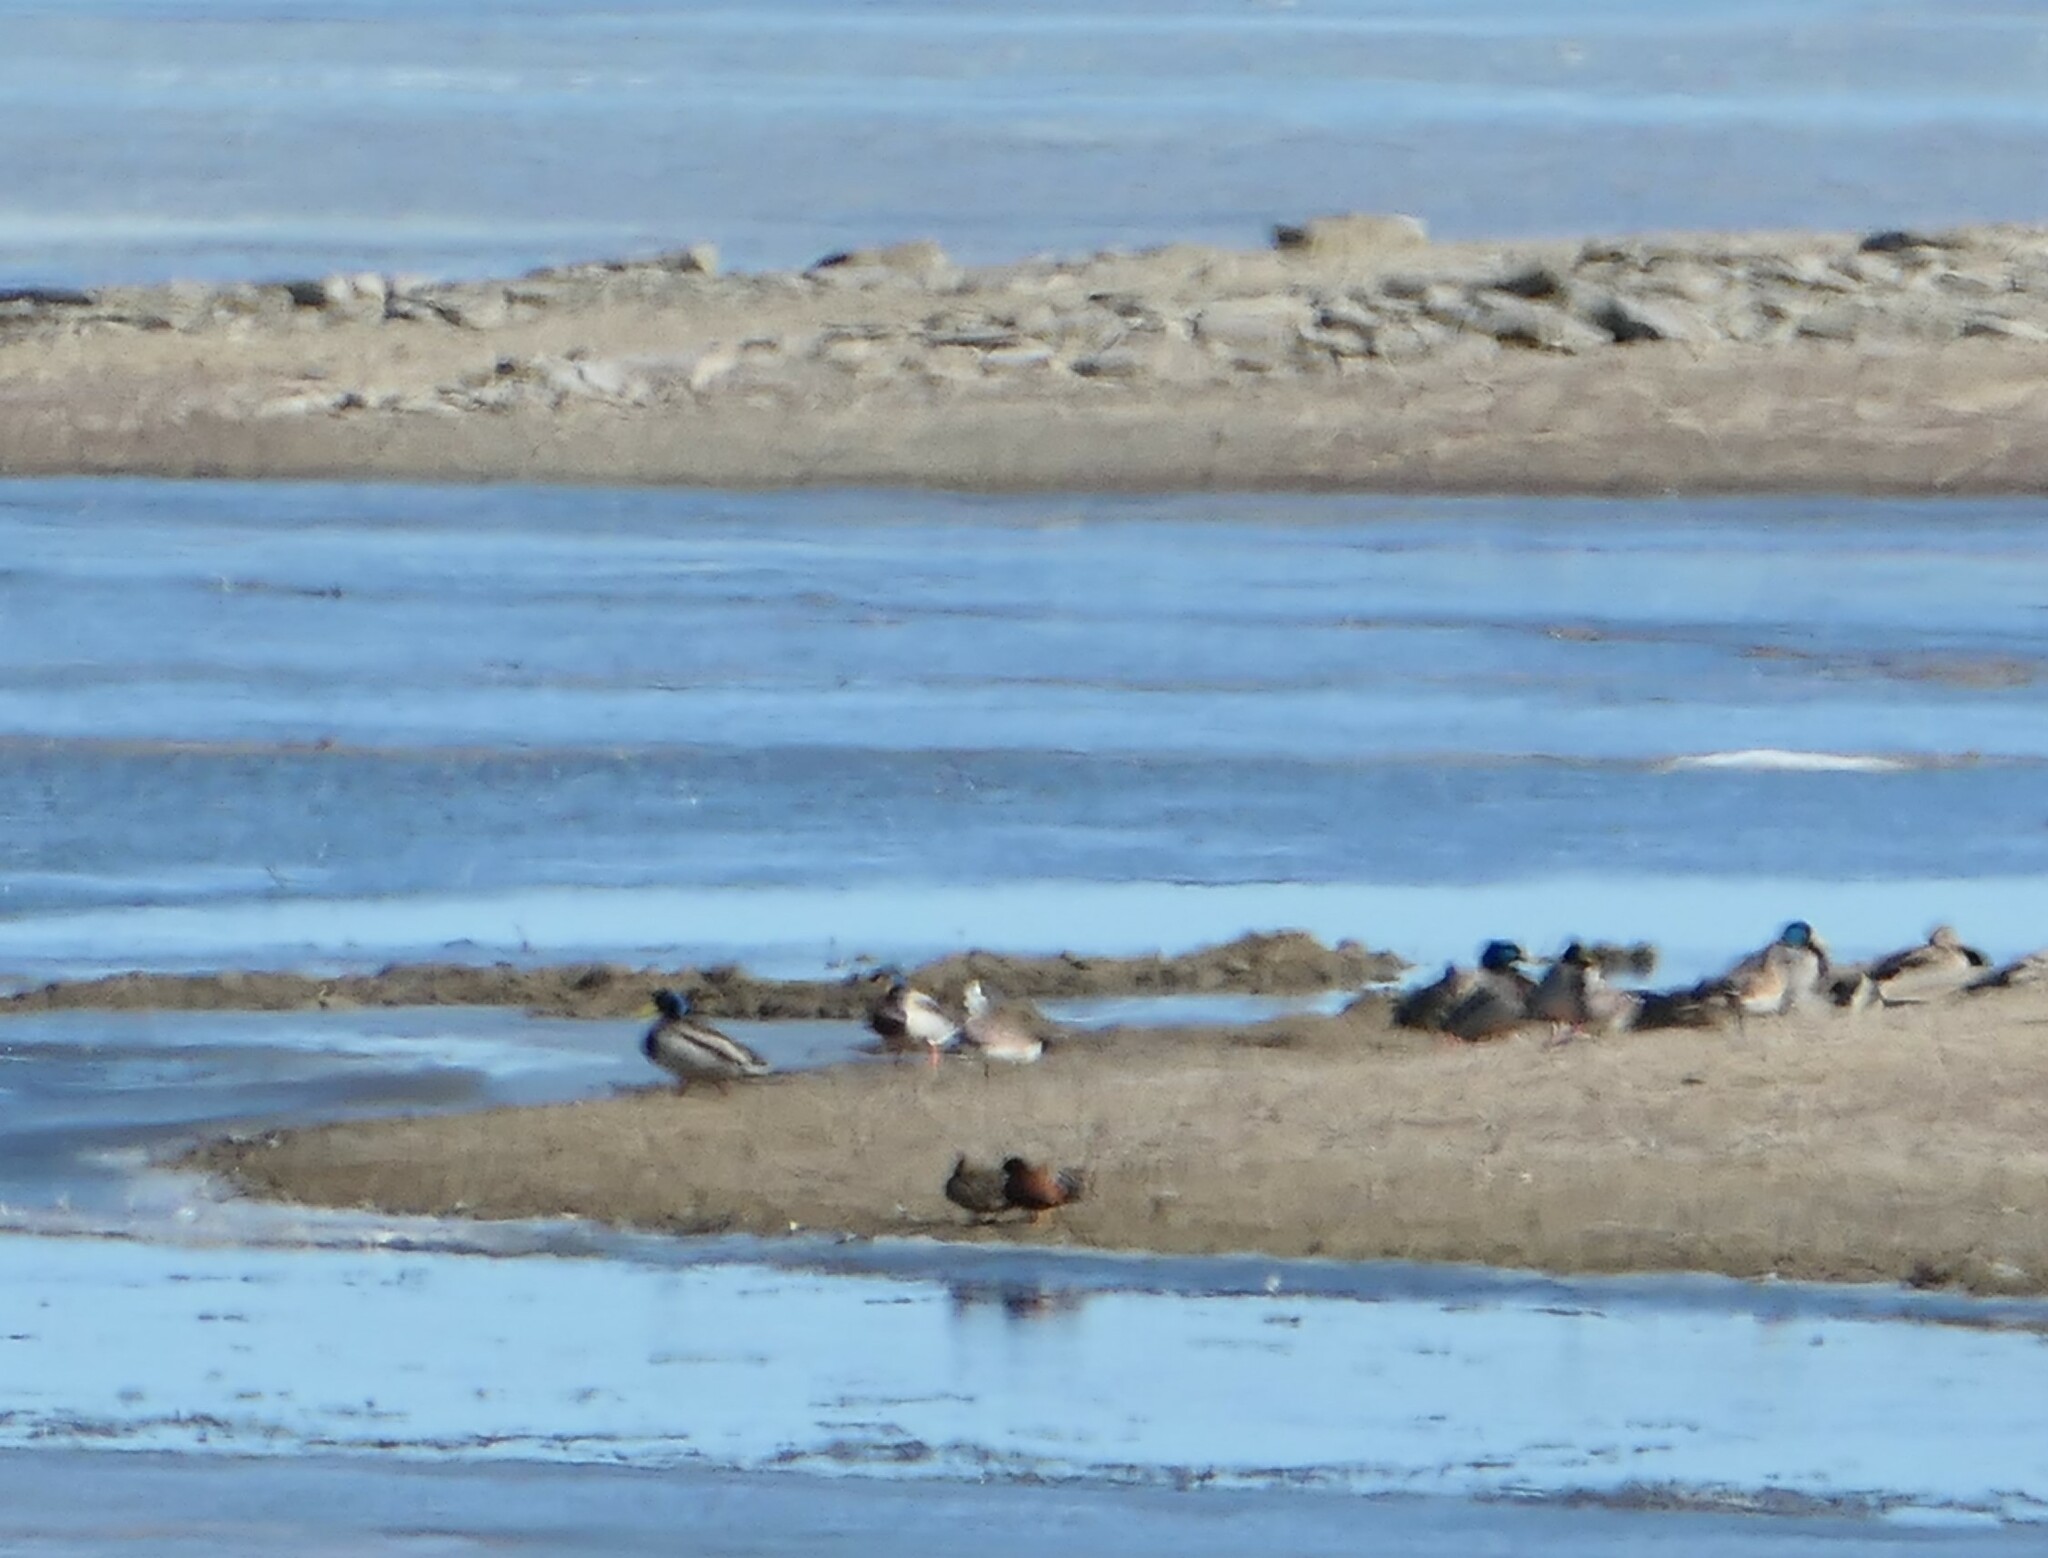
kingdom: Animalia
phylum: Chordata
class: Aves
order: Anseriformes
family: Anatidae
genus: Anas
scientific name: Anas platyrhynchos
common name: Mallard
